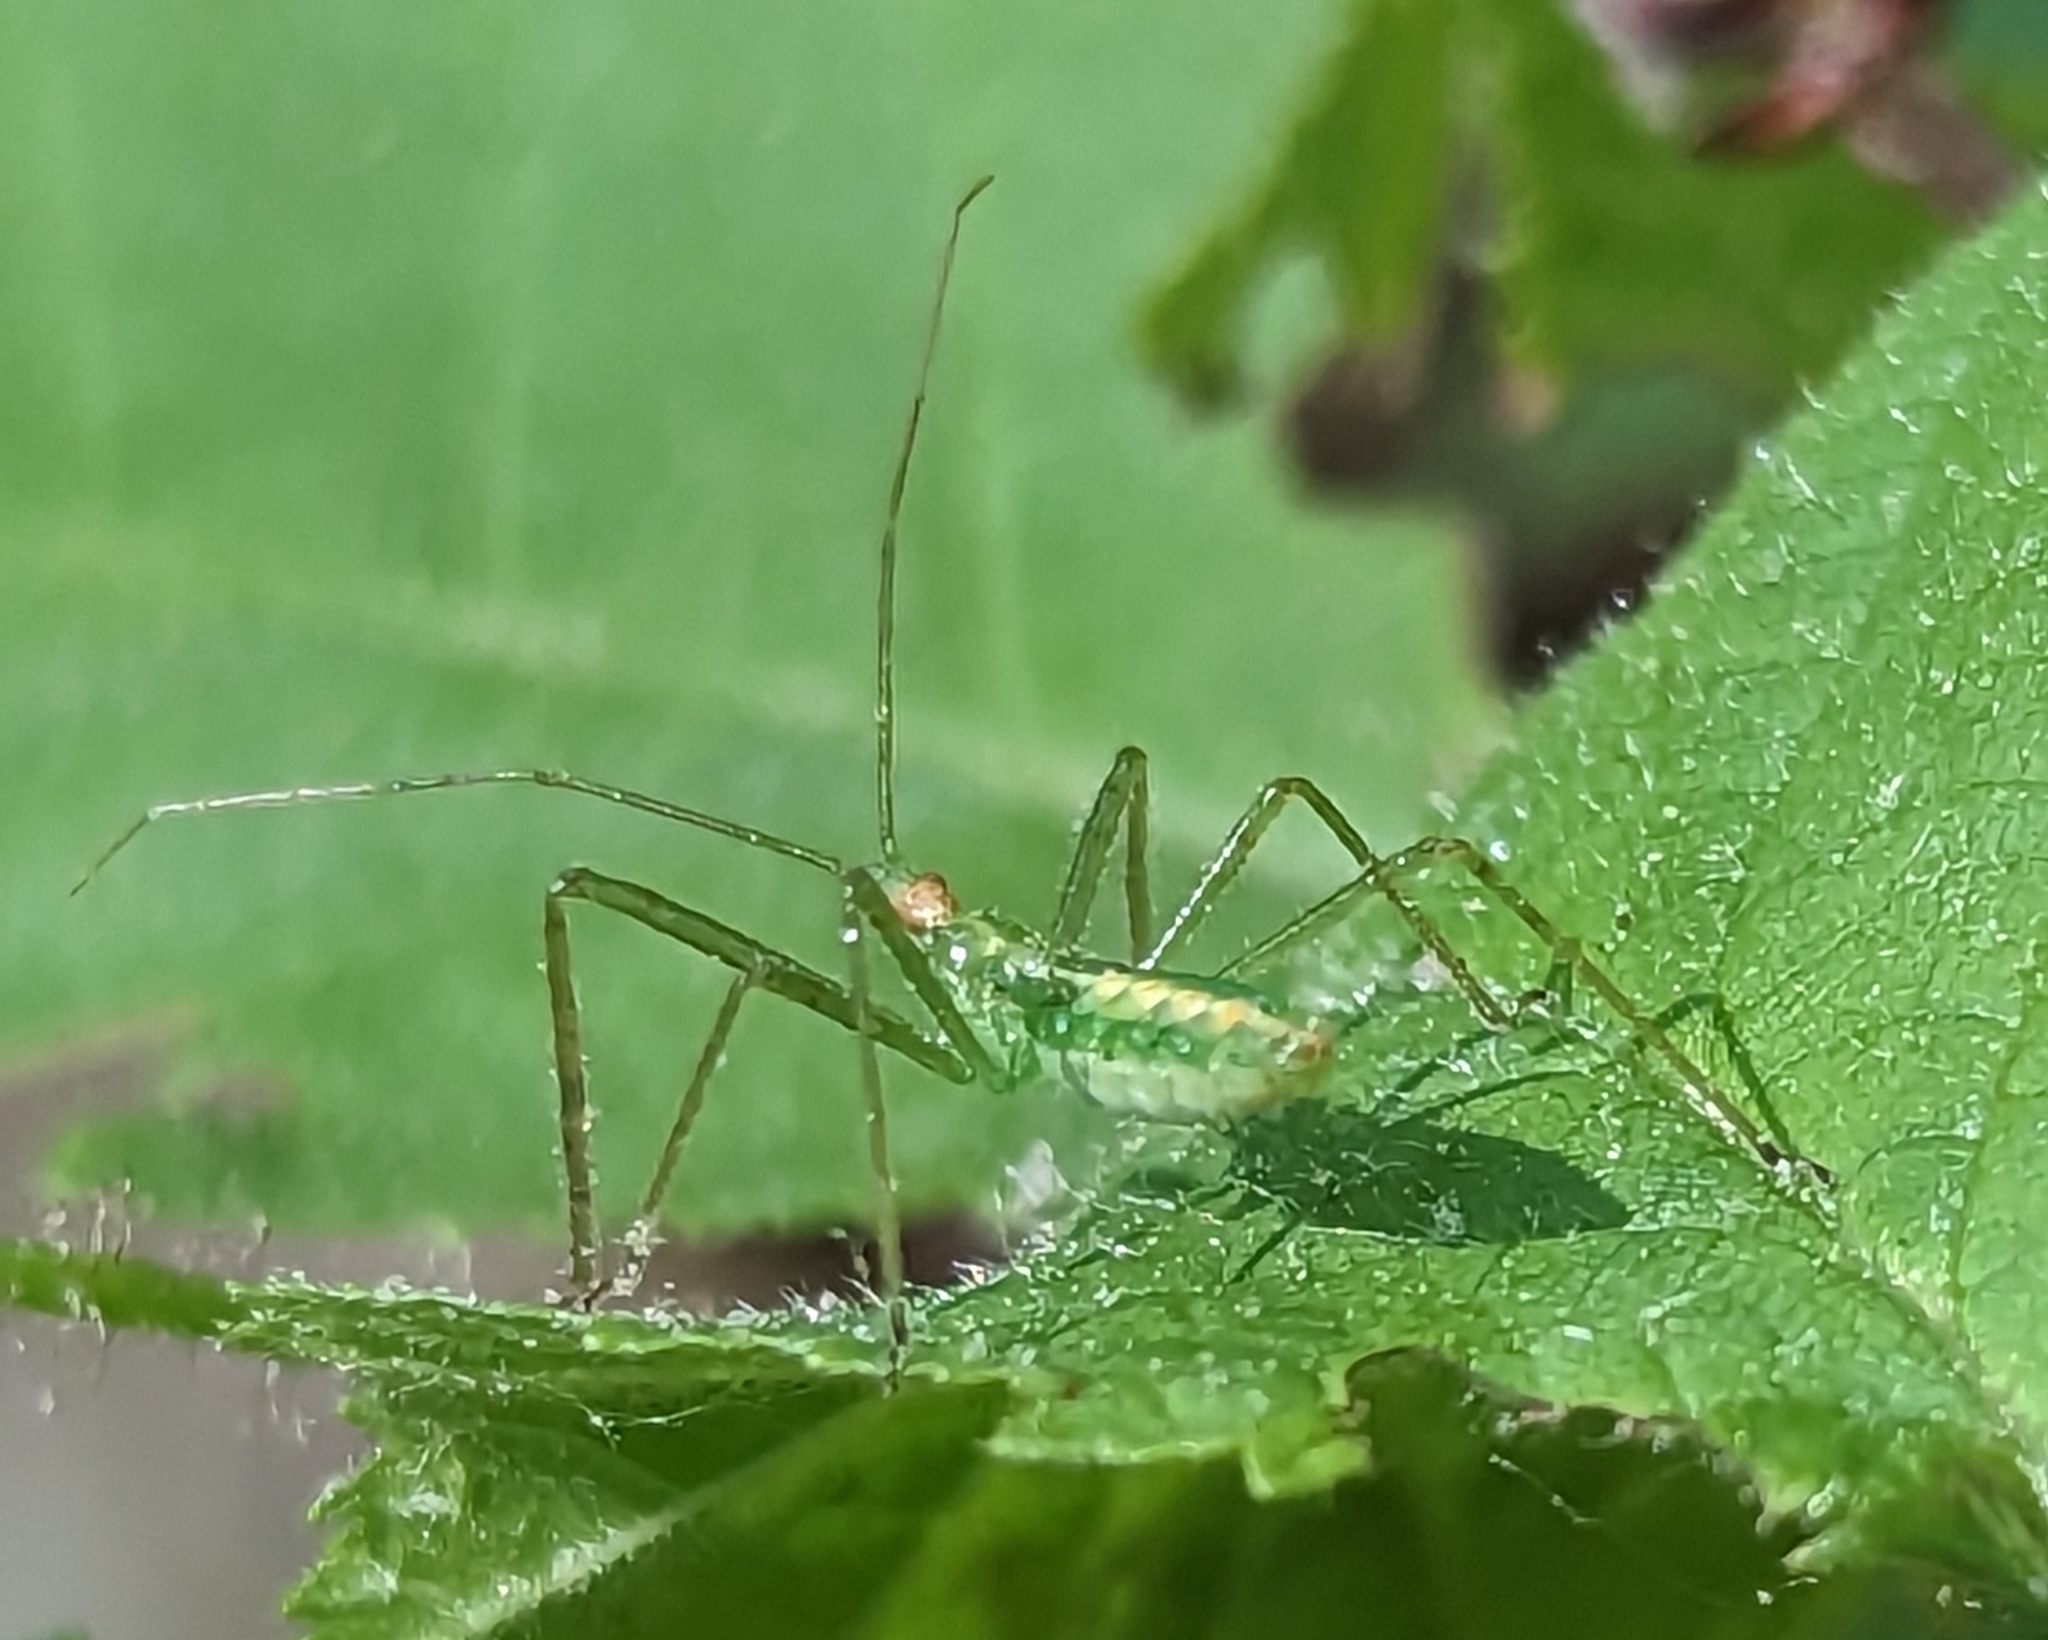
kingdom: Animalia
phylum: Arthropoda
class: Insecta
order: Hemiptera
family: Reduviidae
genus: Zelus
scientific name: Zelus luridus
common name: Pale green assassin bug
